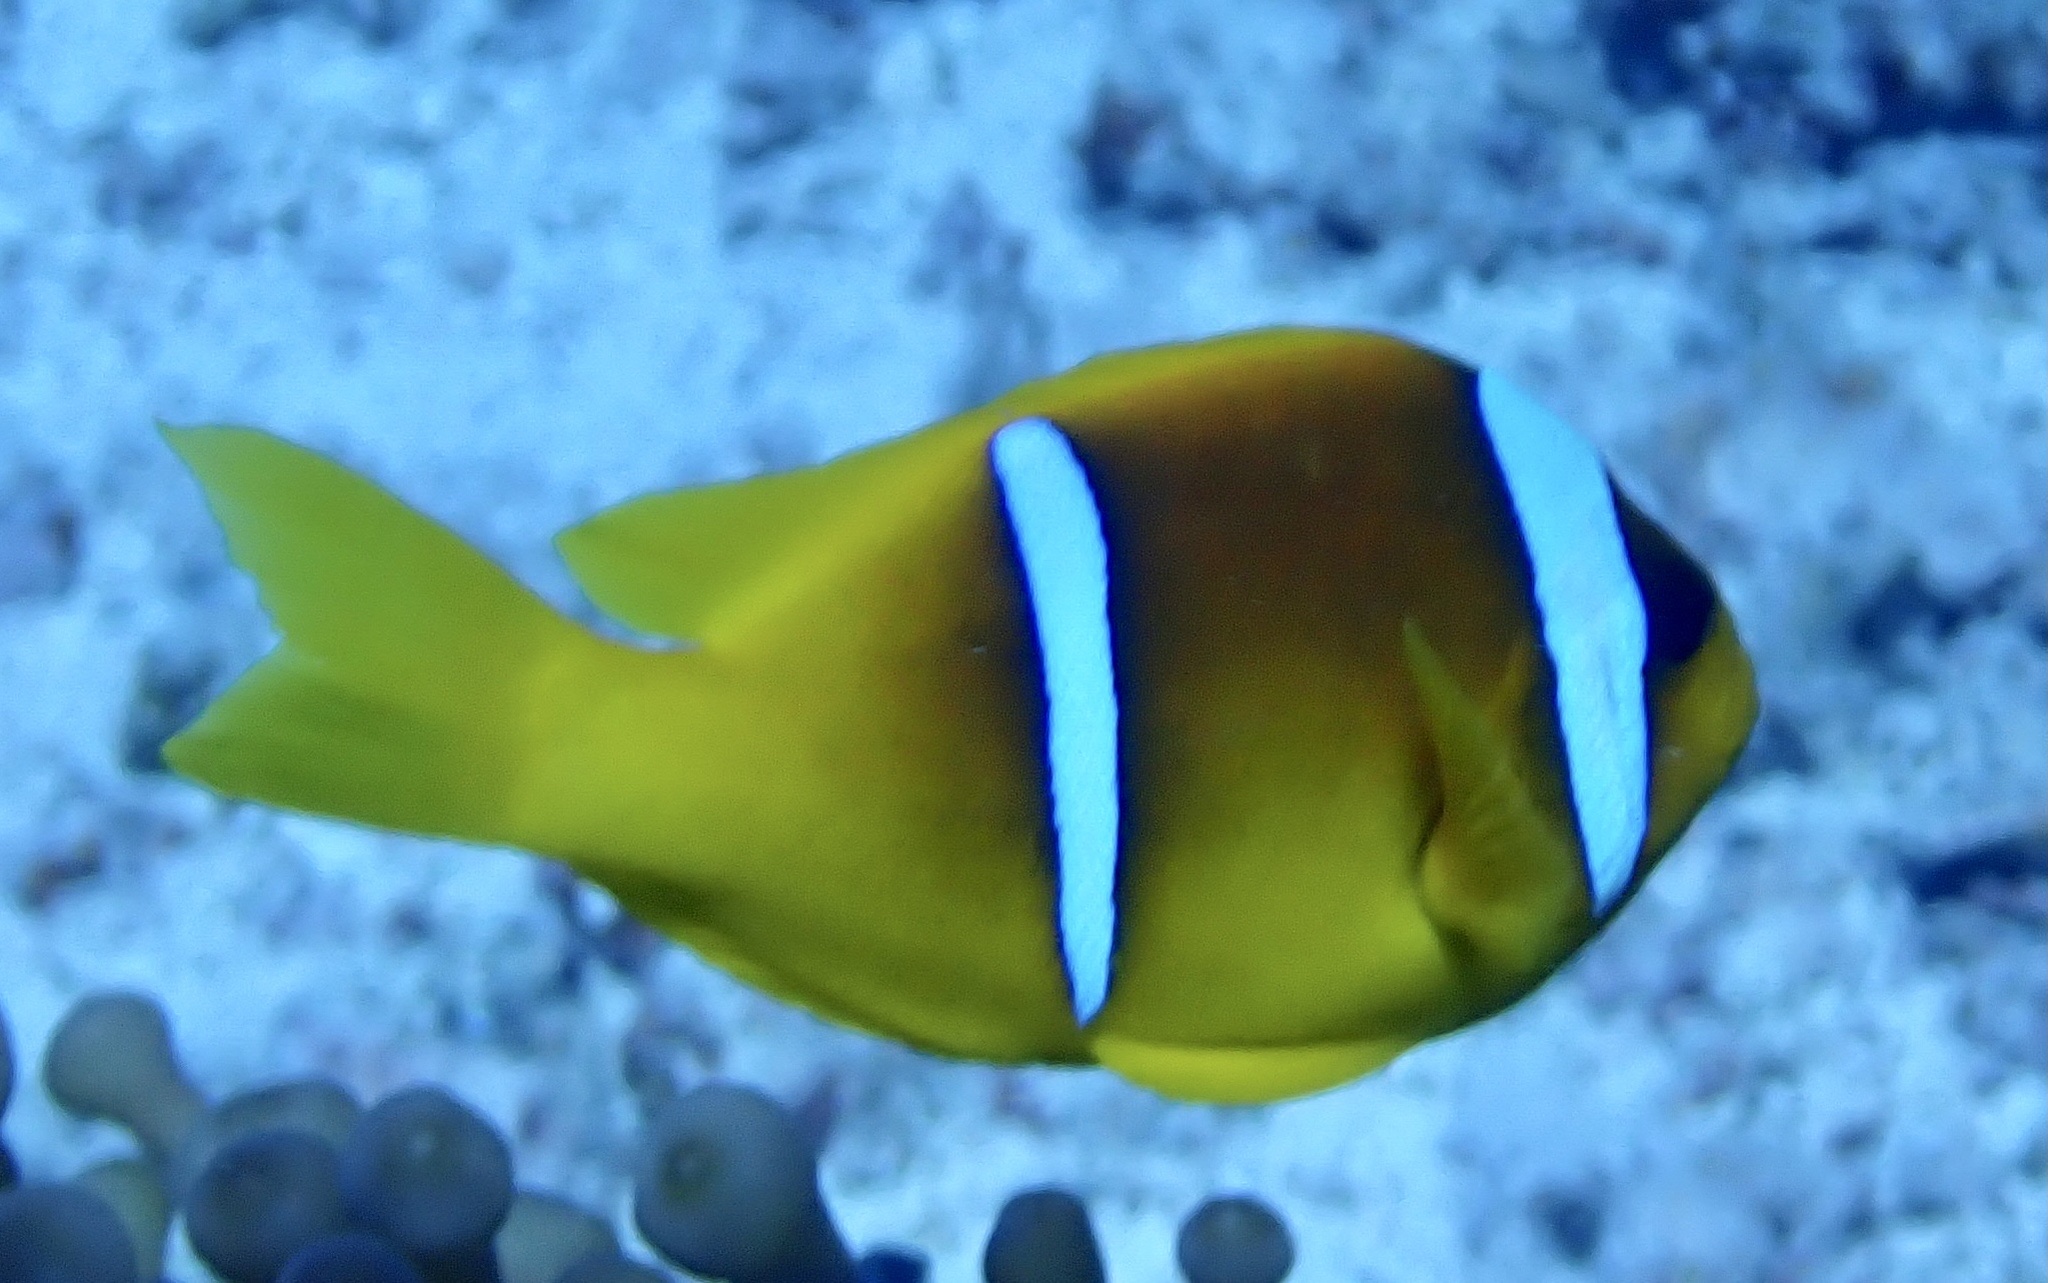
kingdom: Animalia
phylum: Chordata
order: Perciformes
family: Pomacentridae
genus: Amphiprion
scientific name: Amphiprion bicinctus
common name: Two-banded anemonefish
